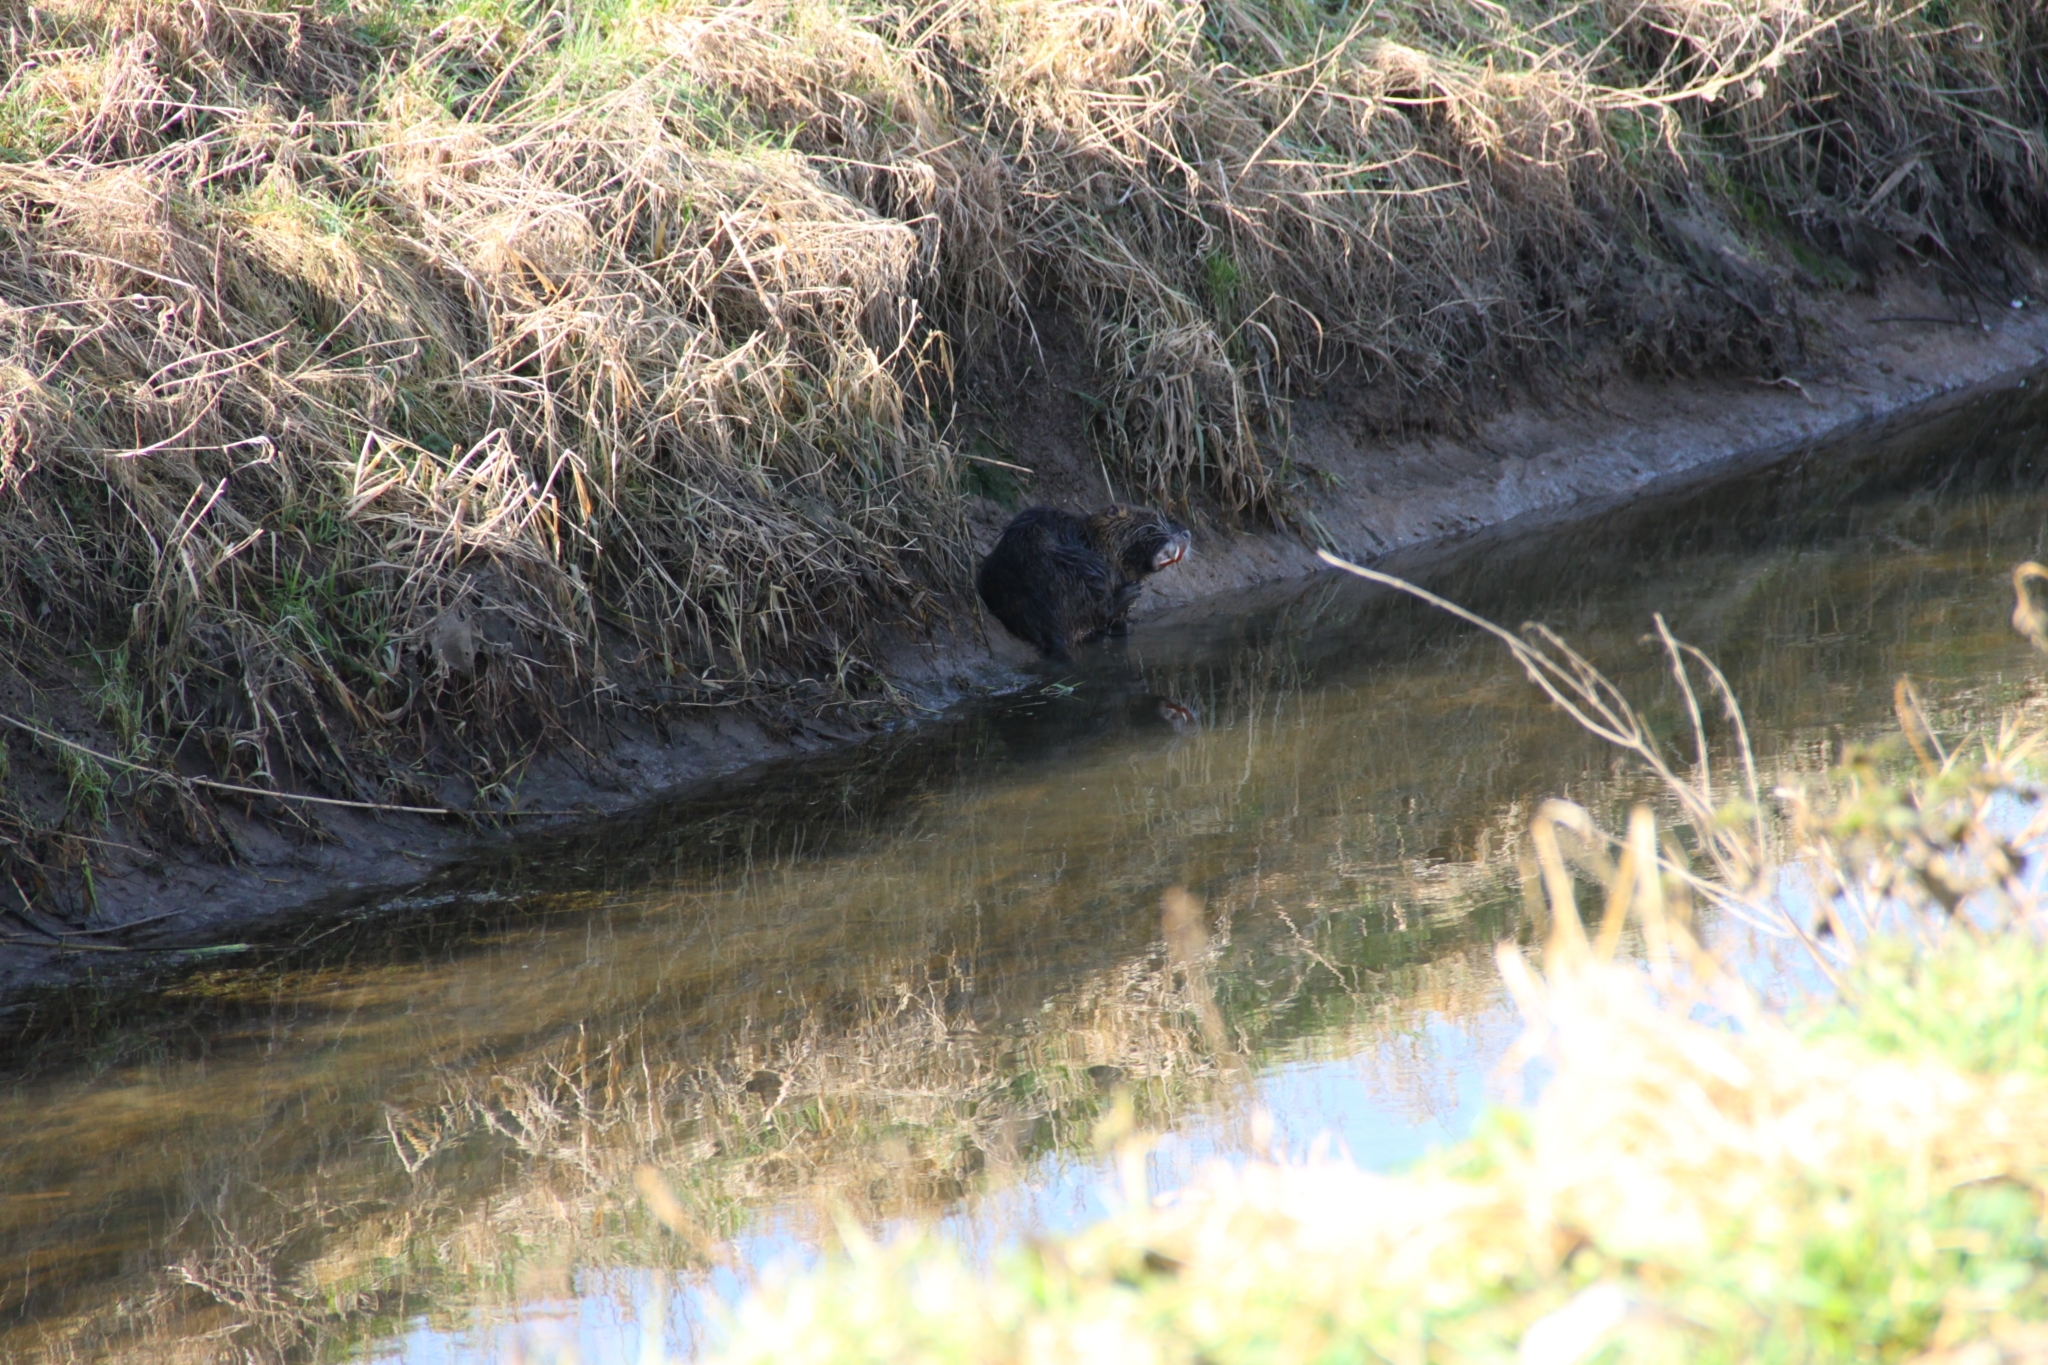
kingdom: Animalia
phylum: Chordata
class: Mammalia
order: Rodentia
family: Myocastoridae
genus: Myocastor
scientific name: Myocastor coypus
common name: Coypu
